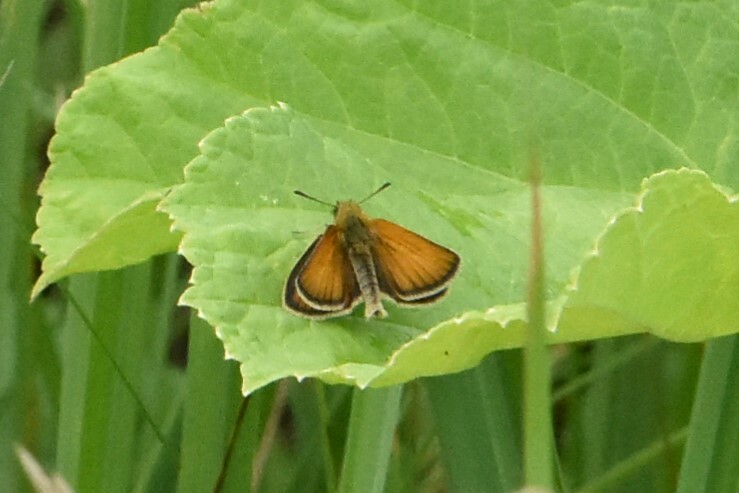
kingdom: Animalia
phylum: Arthropoda
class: Insecta
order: Lepidoptera
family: Hesperiidae
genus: Thymelicus
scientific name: Thymelicus lineola
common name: Essex skipper
